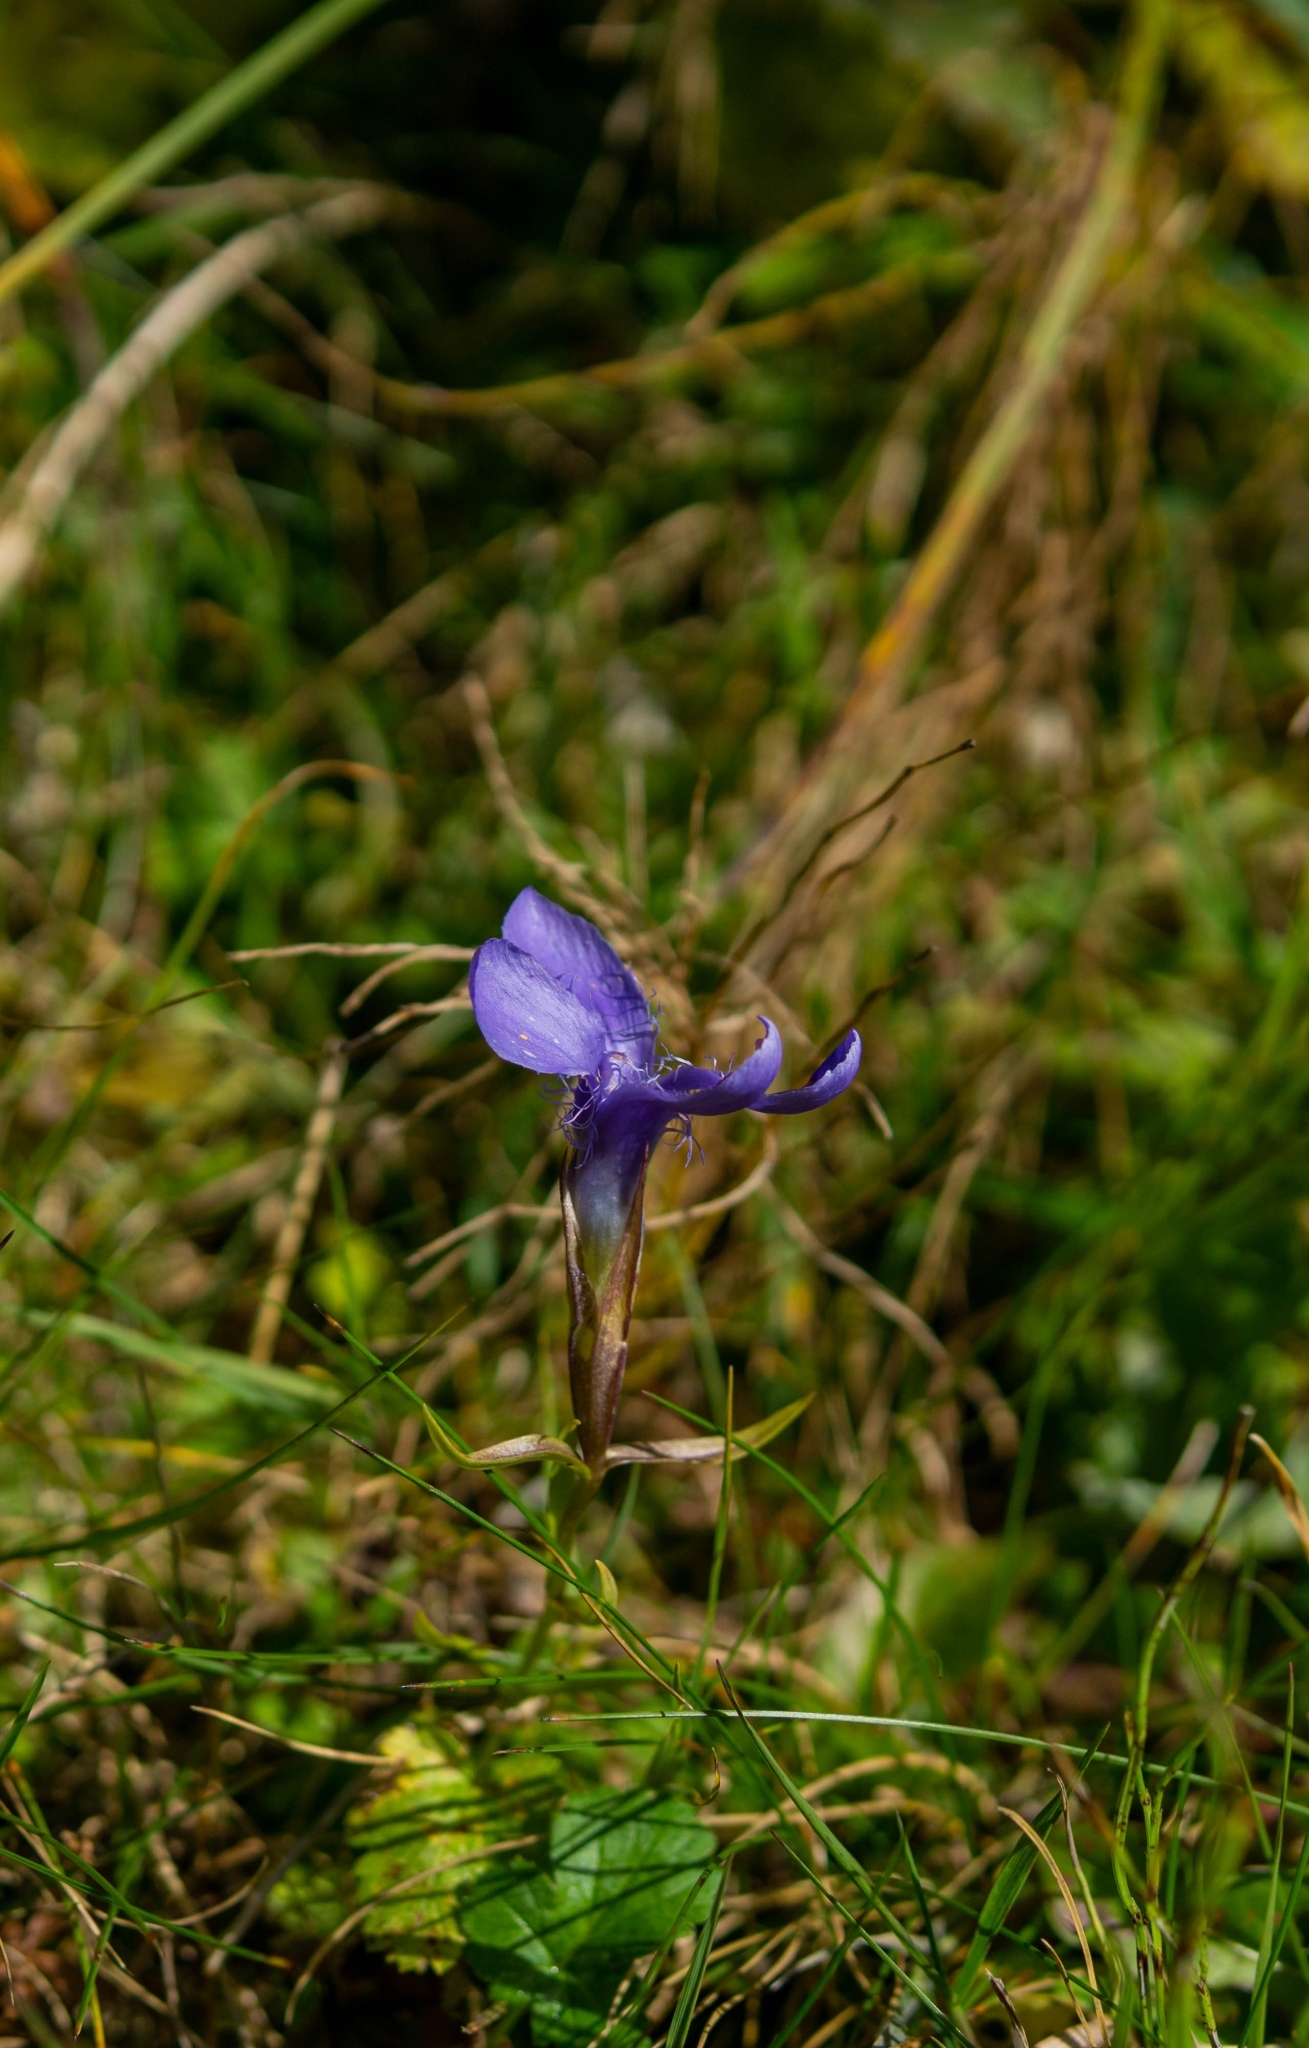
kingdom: Plantae
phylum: Tracheophyta
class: Magnoliopsida
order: Gentianales
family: Gentianaceae
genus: Gentianopsis
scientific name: Gentianopsis ciliata
